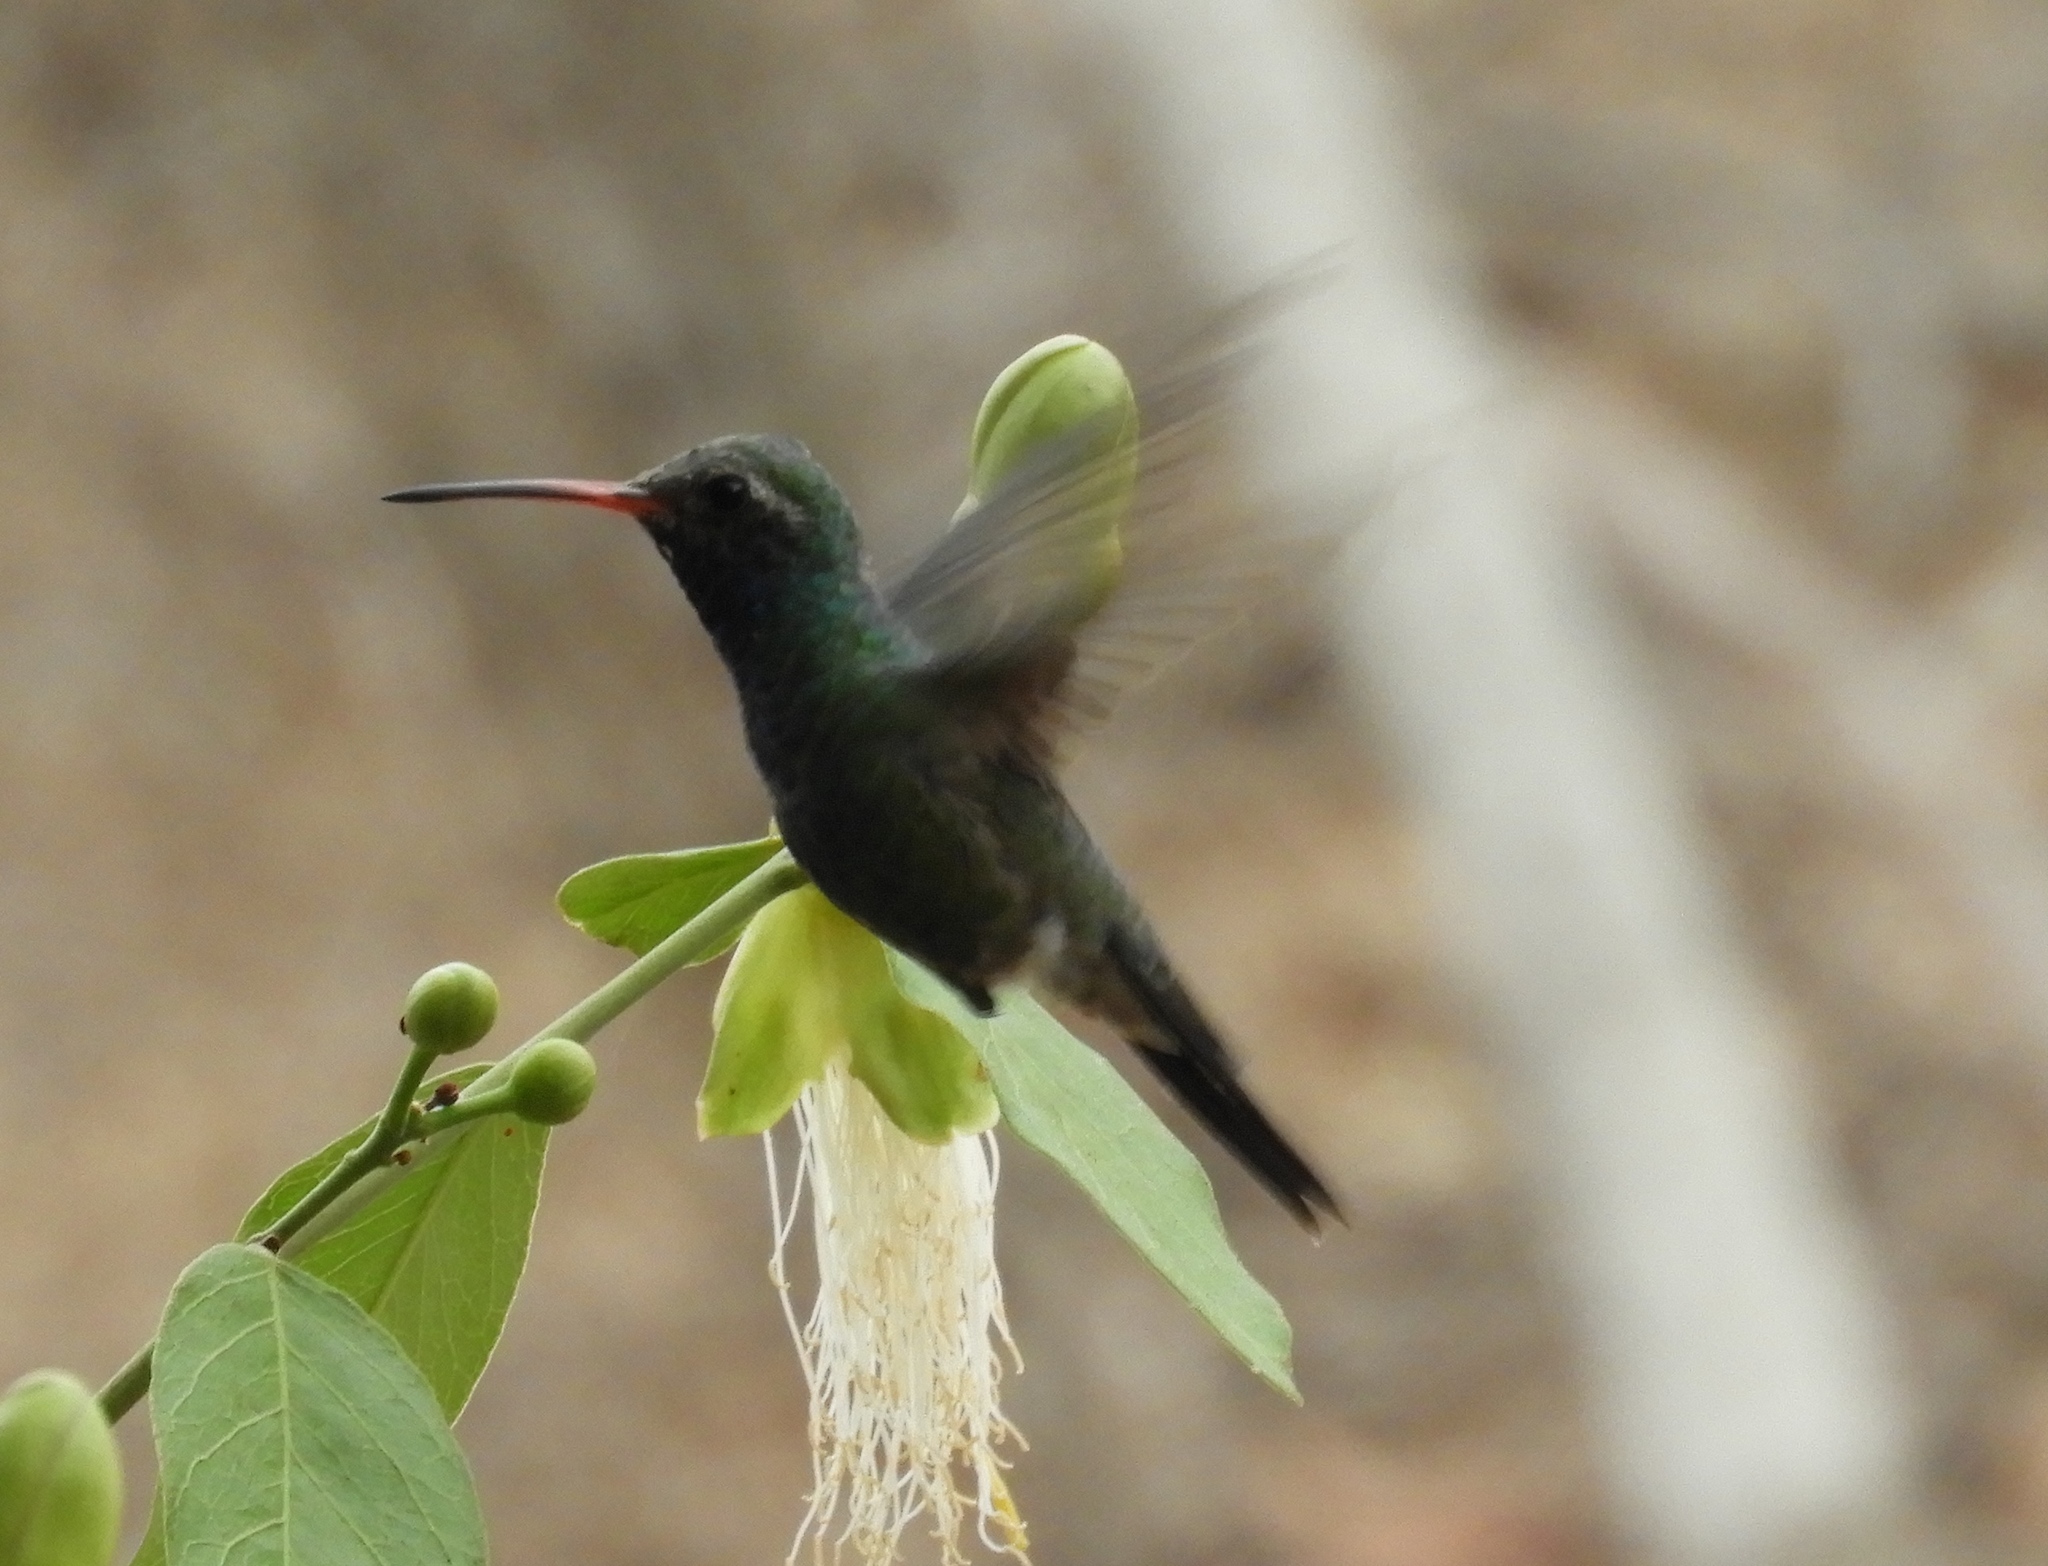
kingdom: Animalia
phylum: Chordata
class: Aves
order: Apodiformes
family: Trochilidae
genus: Cynanthus
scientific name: Cynanthus latirostris
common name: Broad-billed hummingbird
